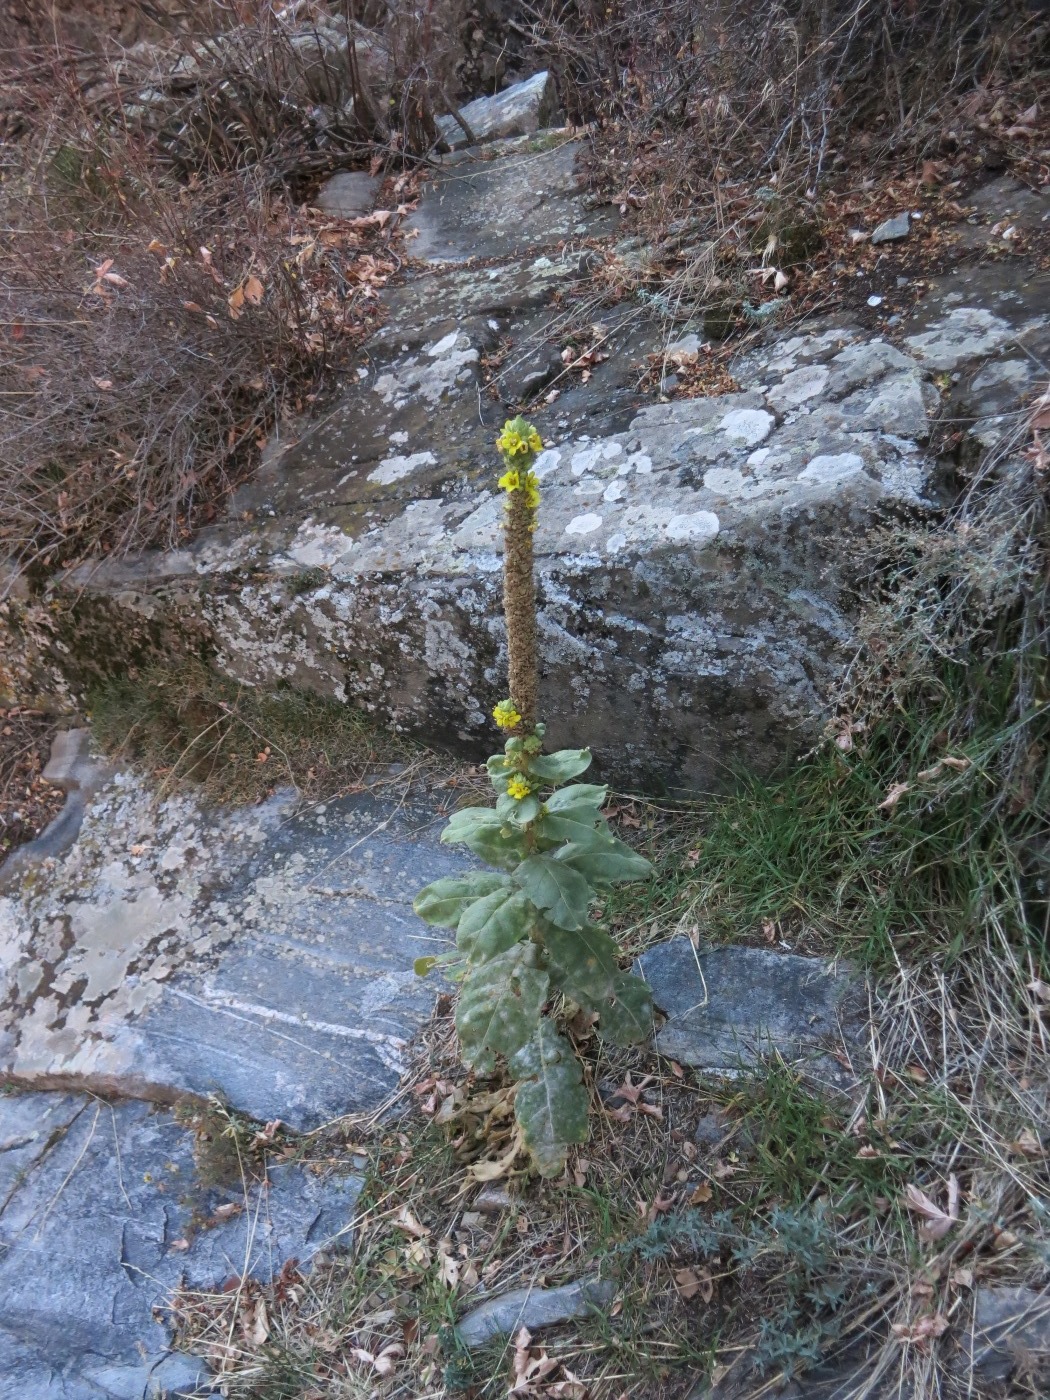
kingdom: Plantae
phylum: Tracheophyta
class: Magnoliopsida
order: Lamiales
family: Scrophulariaceae
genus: Verbascum
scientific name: Verbascum thapsus
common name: Common mullein
